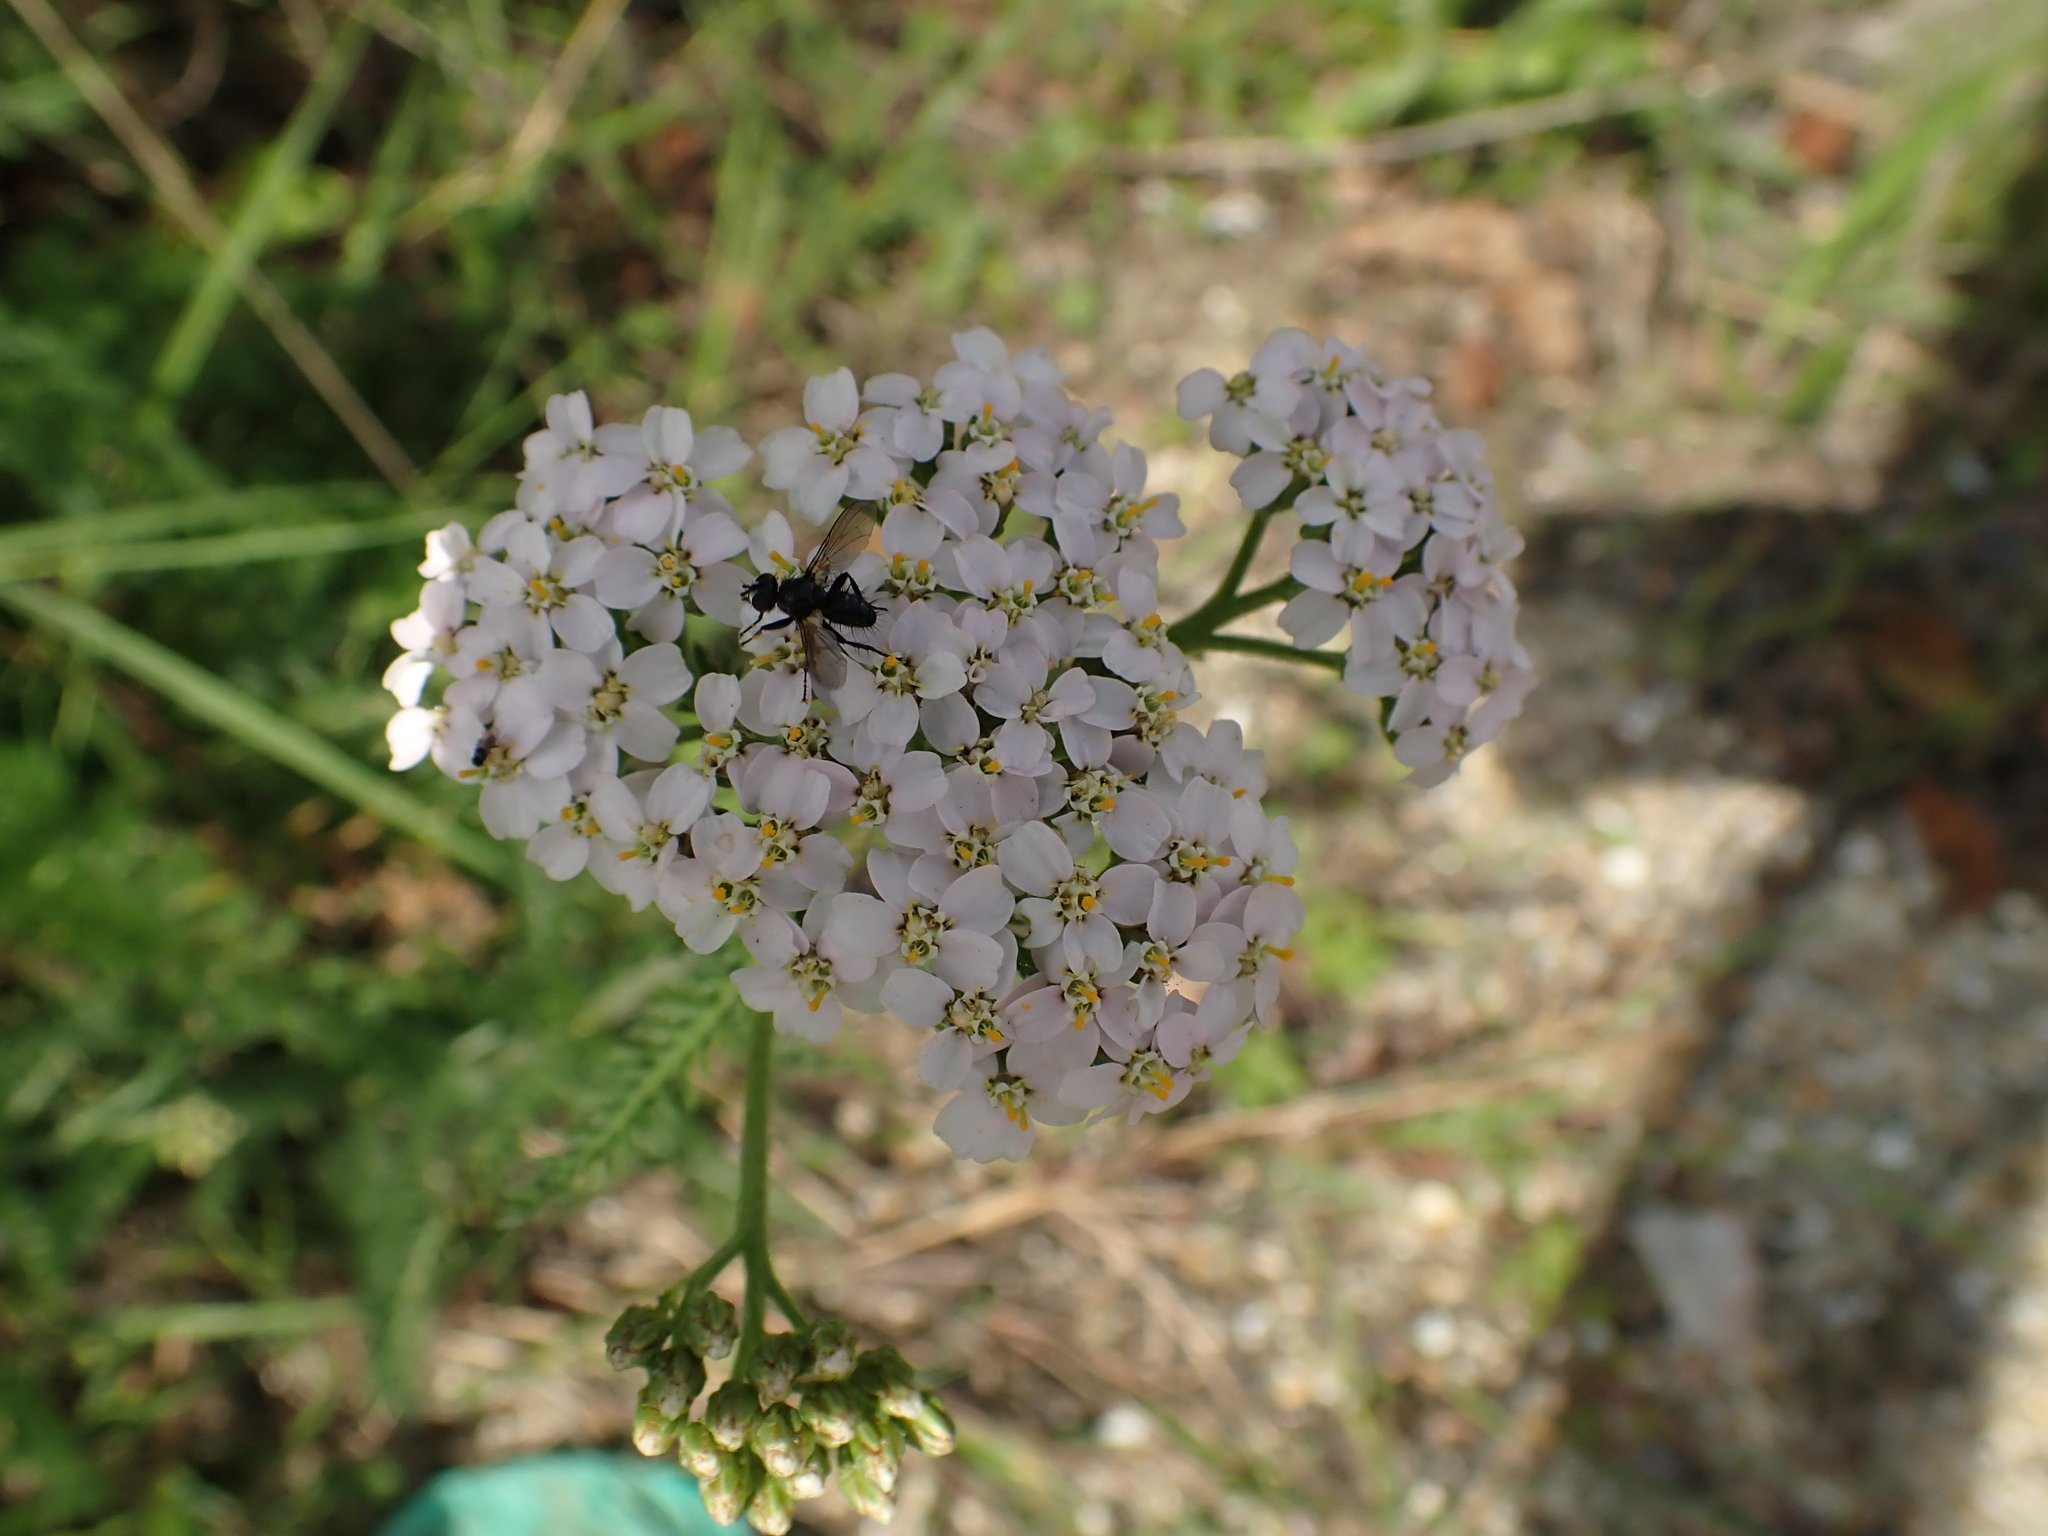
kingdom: Plantae
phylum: Tracheophyta
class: Magnoliopsida
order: Asterales
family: Asteraceae
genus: Achillea
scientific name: Achillea millefolium
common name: Yarrow
